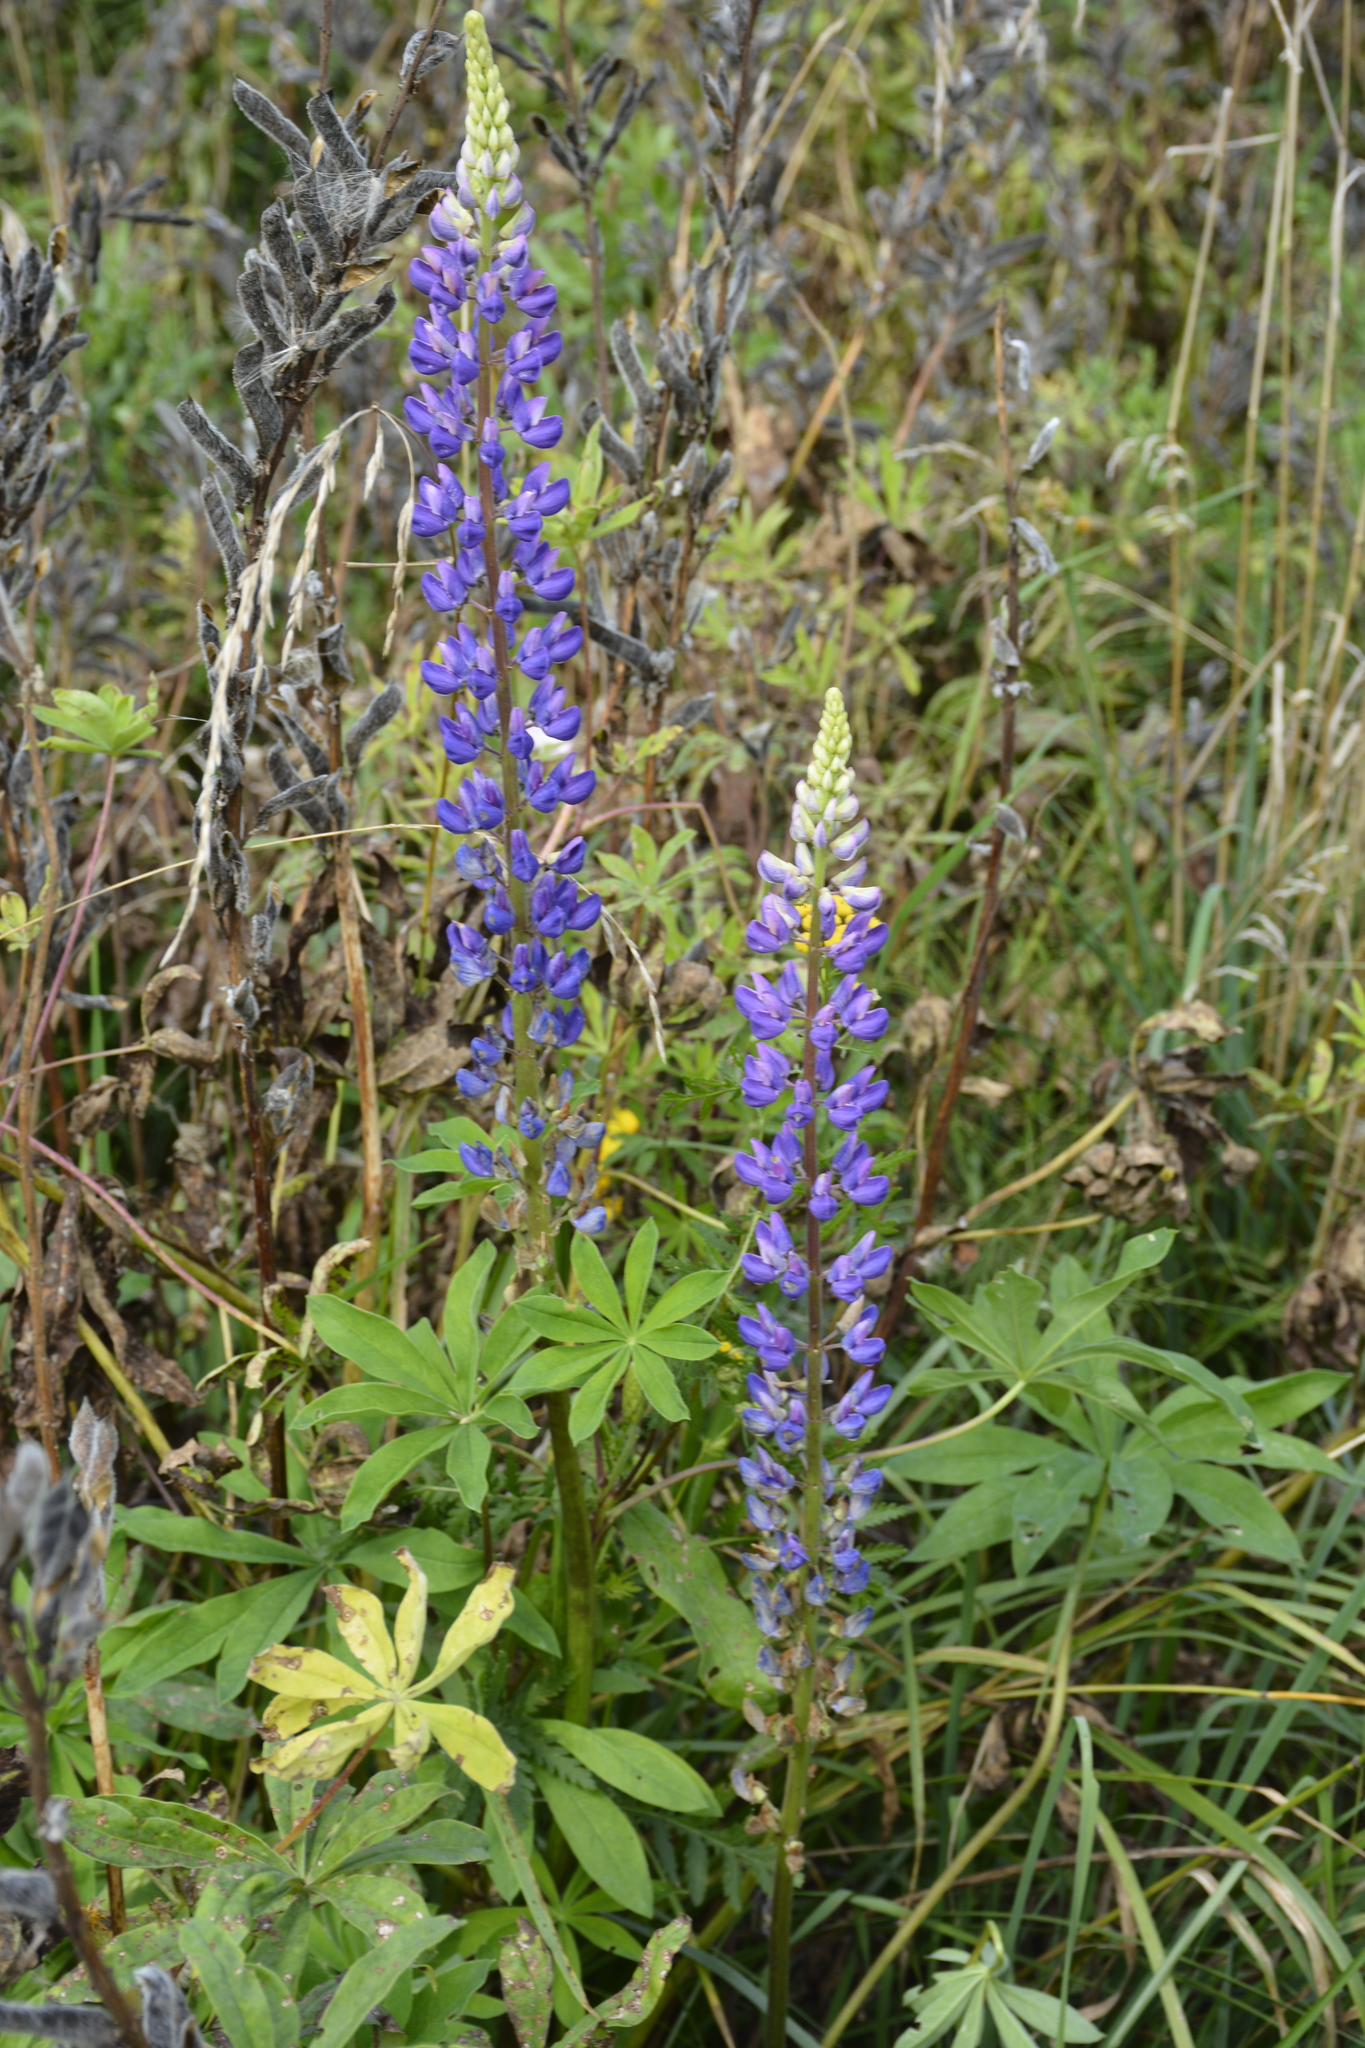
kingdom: Plantae
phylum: Tracheophyta
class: Magnoliopsida
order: Fabales
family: Fabaceae
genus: Lupinus
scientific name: Lupinus polyphyllus
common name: Garden lupin
